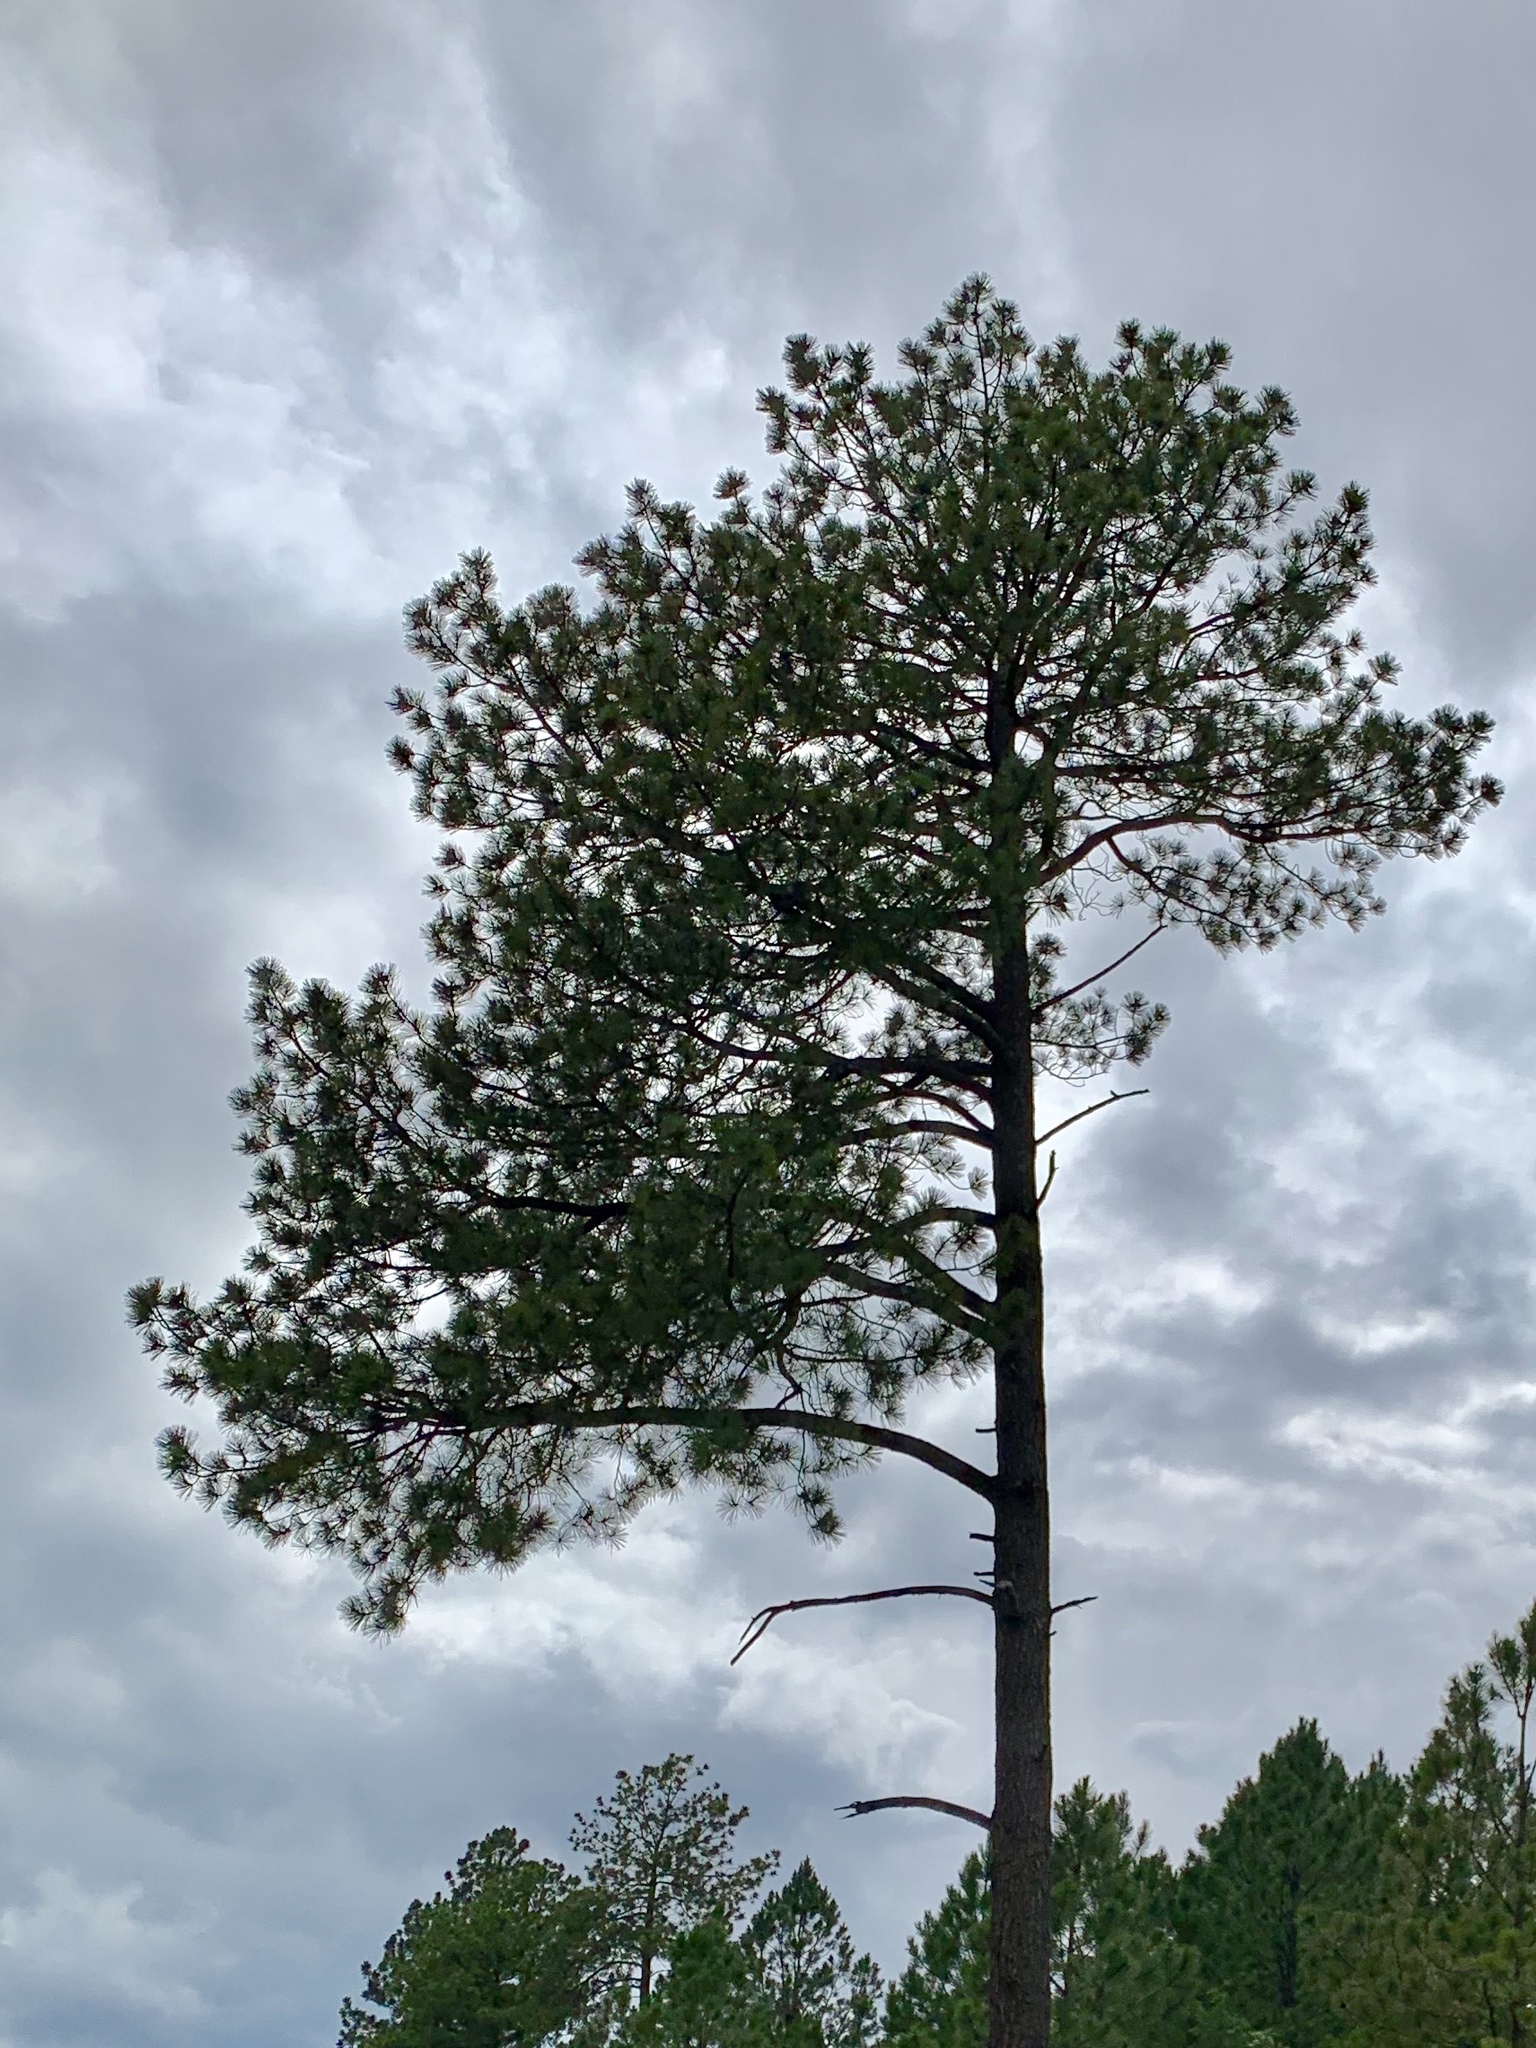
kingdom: Plantae
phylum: Tracheophyta
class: Pinopsida
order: Pinales
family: Pinaceae
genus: Pinus
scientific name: Pinus ponderosa
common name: Western yellow-pine
